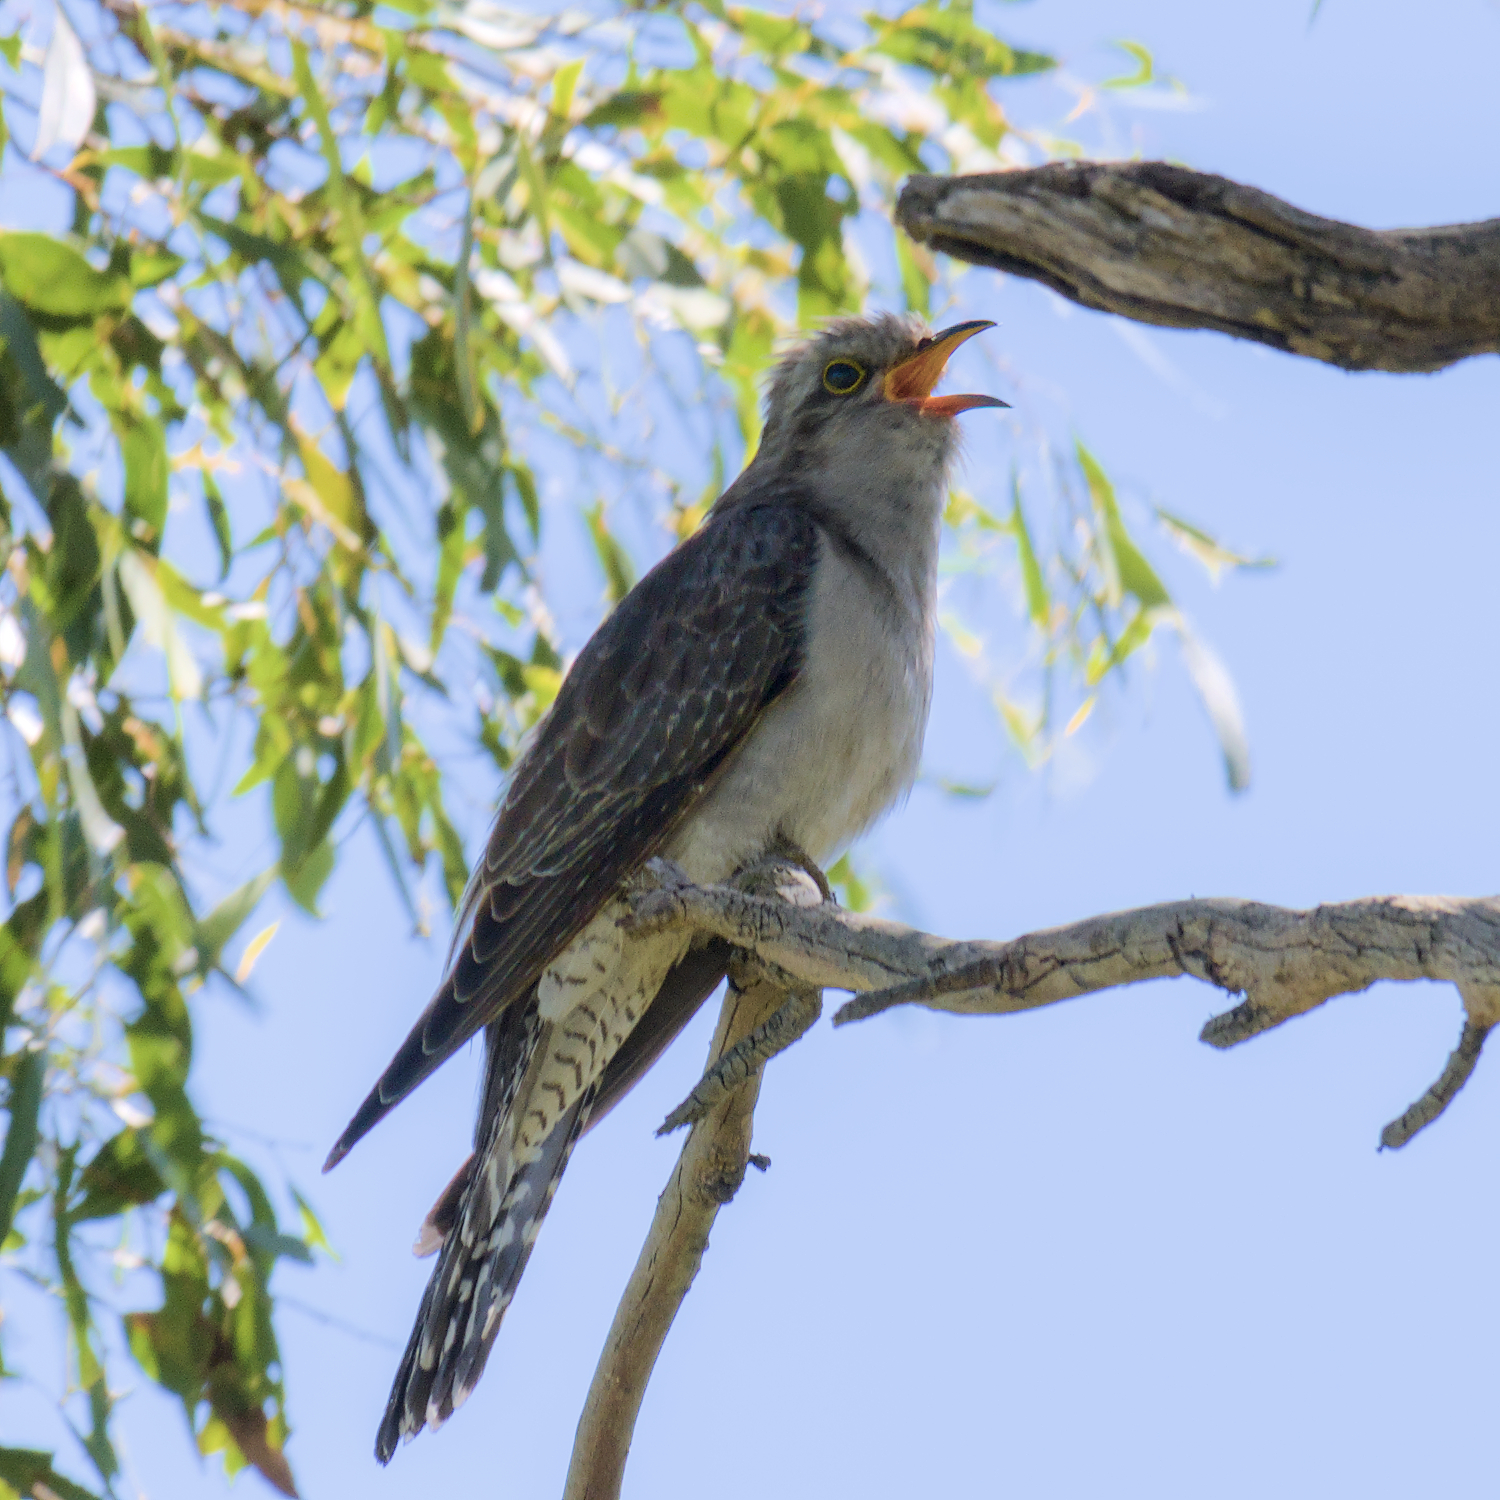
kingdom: Animalia
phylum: Chordata
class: Aves
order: Cuculiformes
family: Cuculidae
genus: Cuculus
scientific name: Cuculus pallidus
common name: Pallid cuckoo
